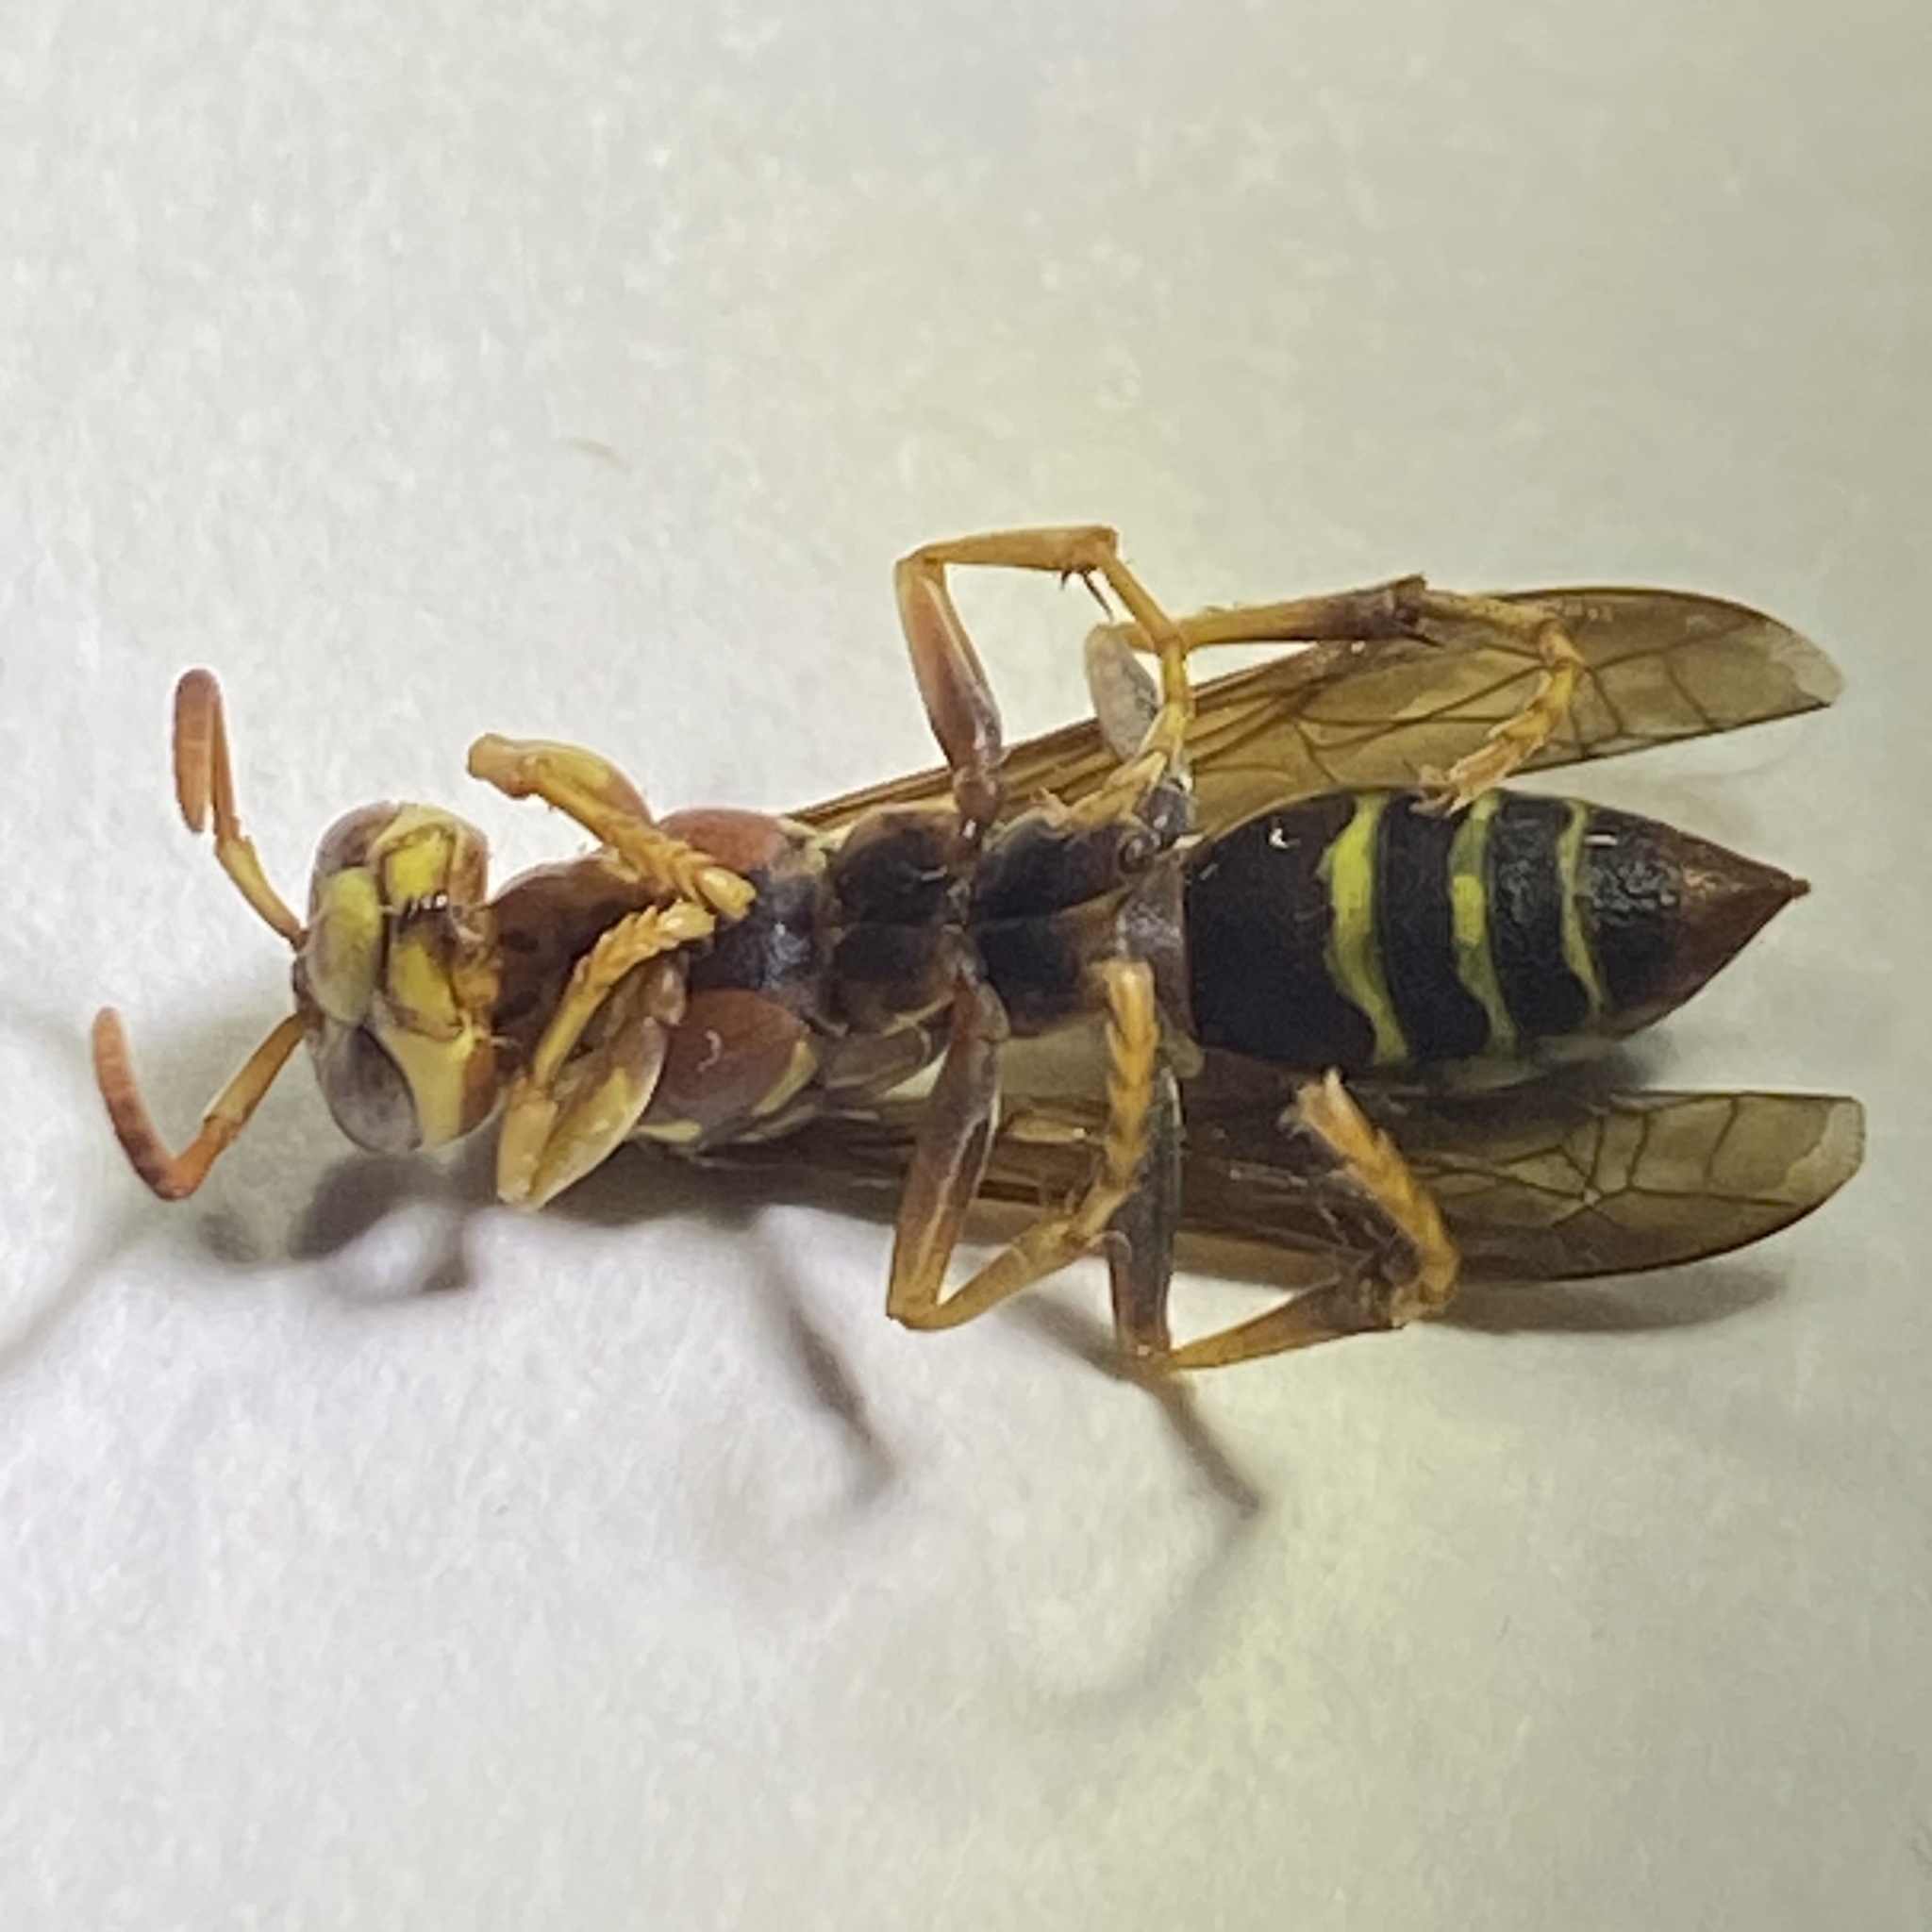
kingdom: Animalia
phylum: Arthropoda
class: Insecta
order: Hymenoptera
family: Eumenidae
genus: Polistes
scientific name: Polistes dorsalis
